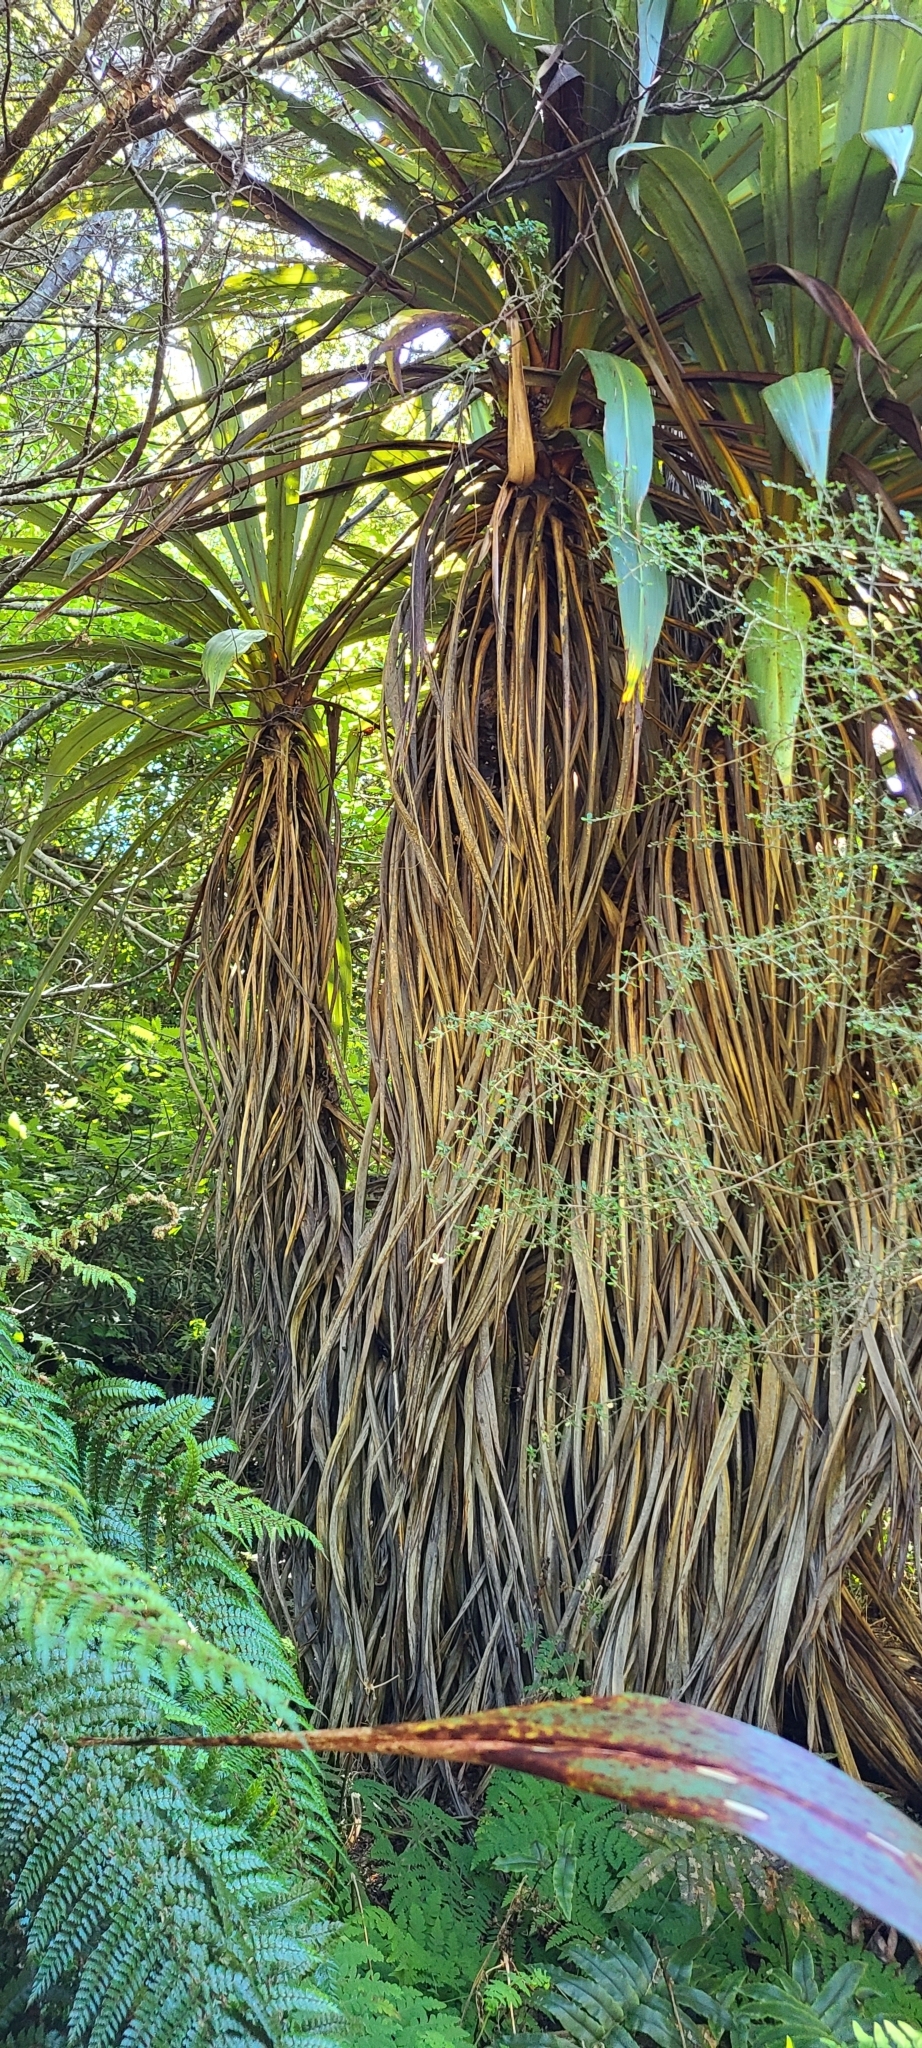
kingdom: Plantae
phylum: Tracheophyta
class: Liliopsida
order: Asparagales
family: Asparagaceae
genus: Cordyline
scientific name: Cordyline indivisa
